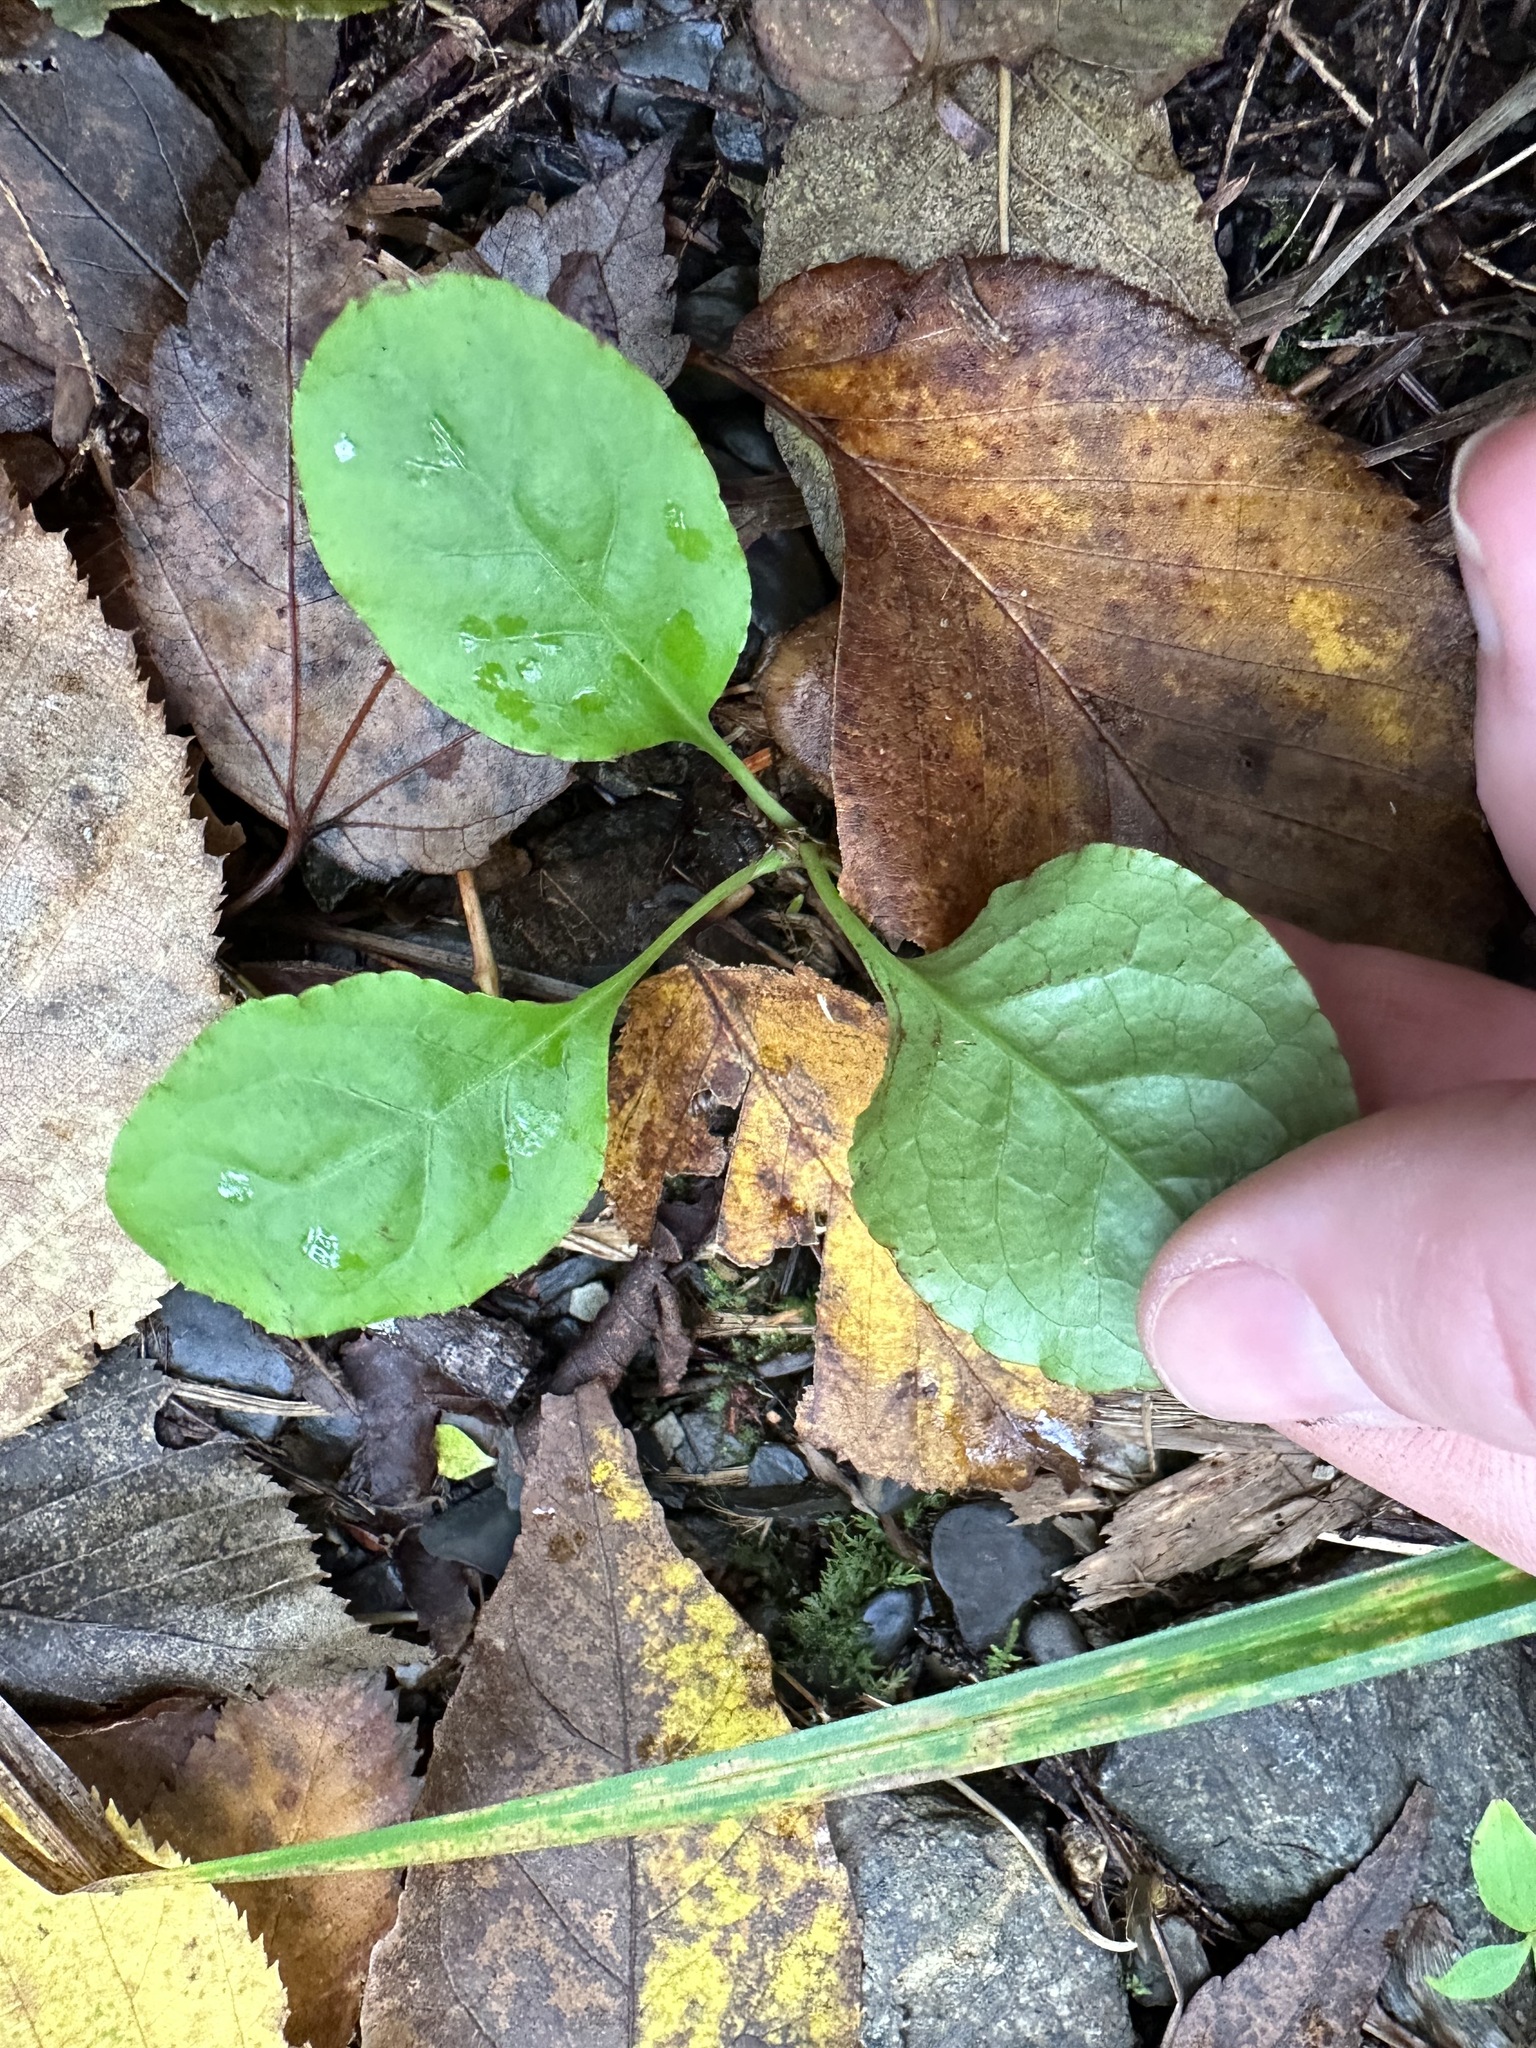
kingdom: Plantae
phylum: Tracheophyta
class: Magnoliopsida
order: Ericales
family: Ericaceae
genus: Pyrola
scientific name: Pyrola elliptica
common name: Shinleaf
